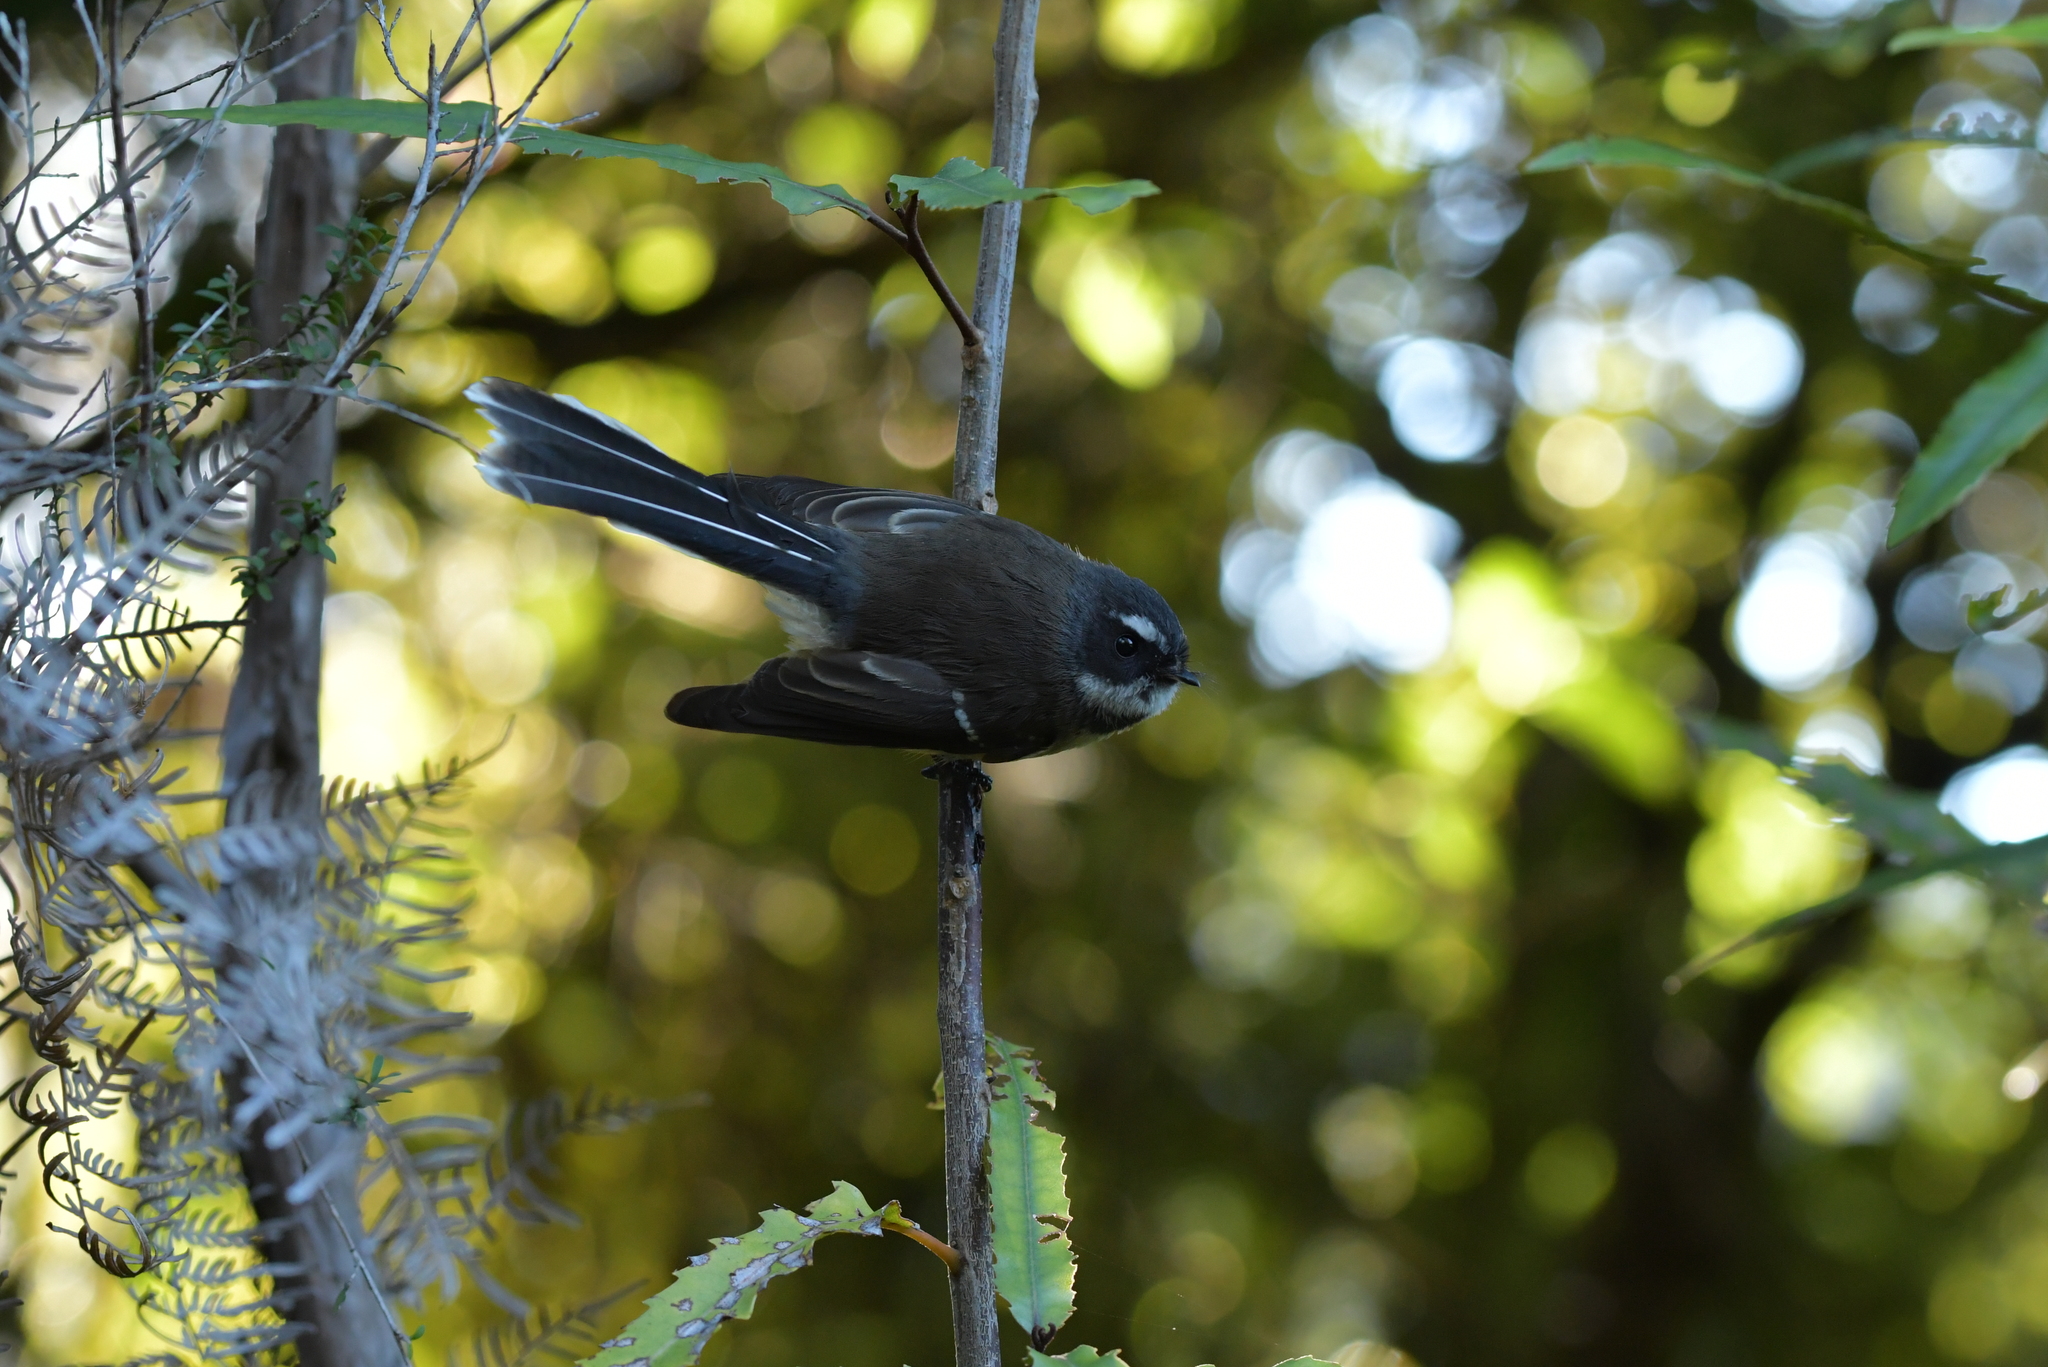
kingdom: Animalia
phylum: Chordata
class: Aves
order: Passeriformes
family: Rhipiduridae
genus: Rhipidura
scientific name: Rhipidura fuliginosa
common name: New zealand fantail
